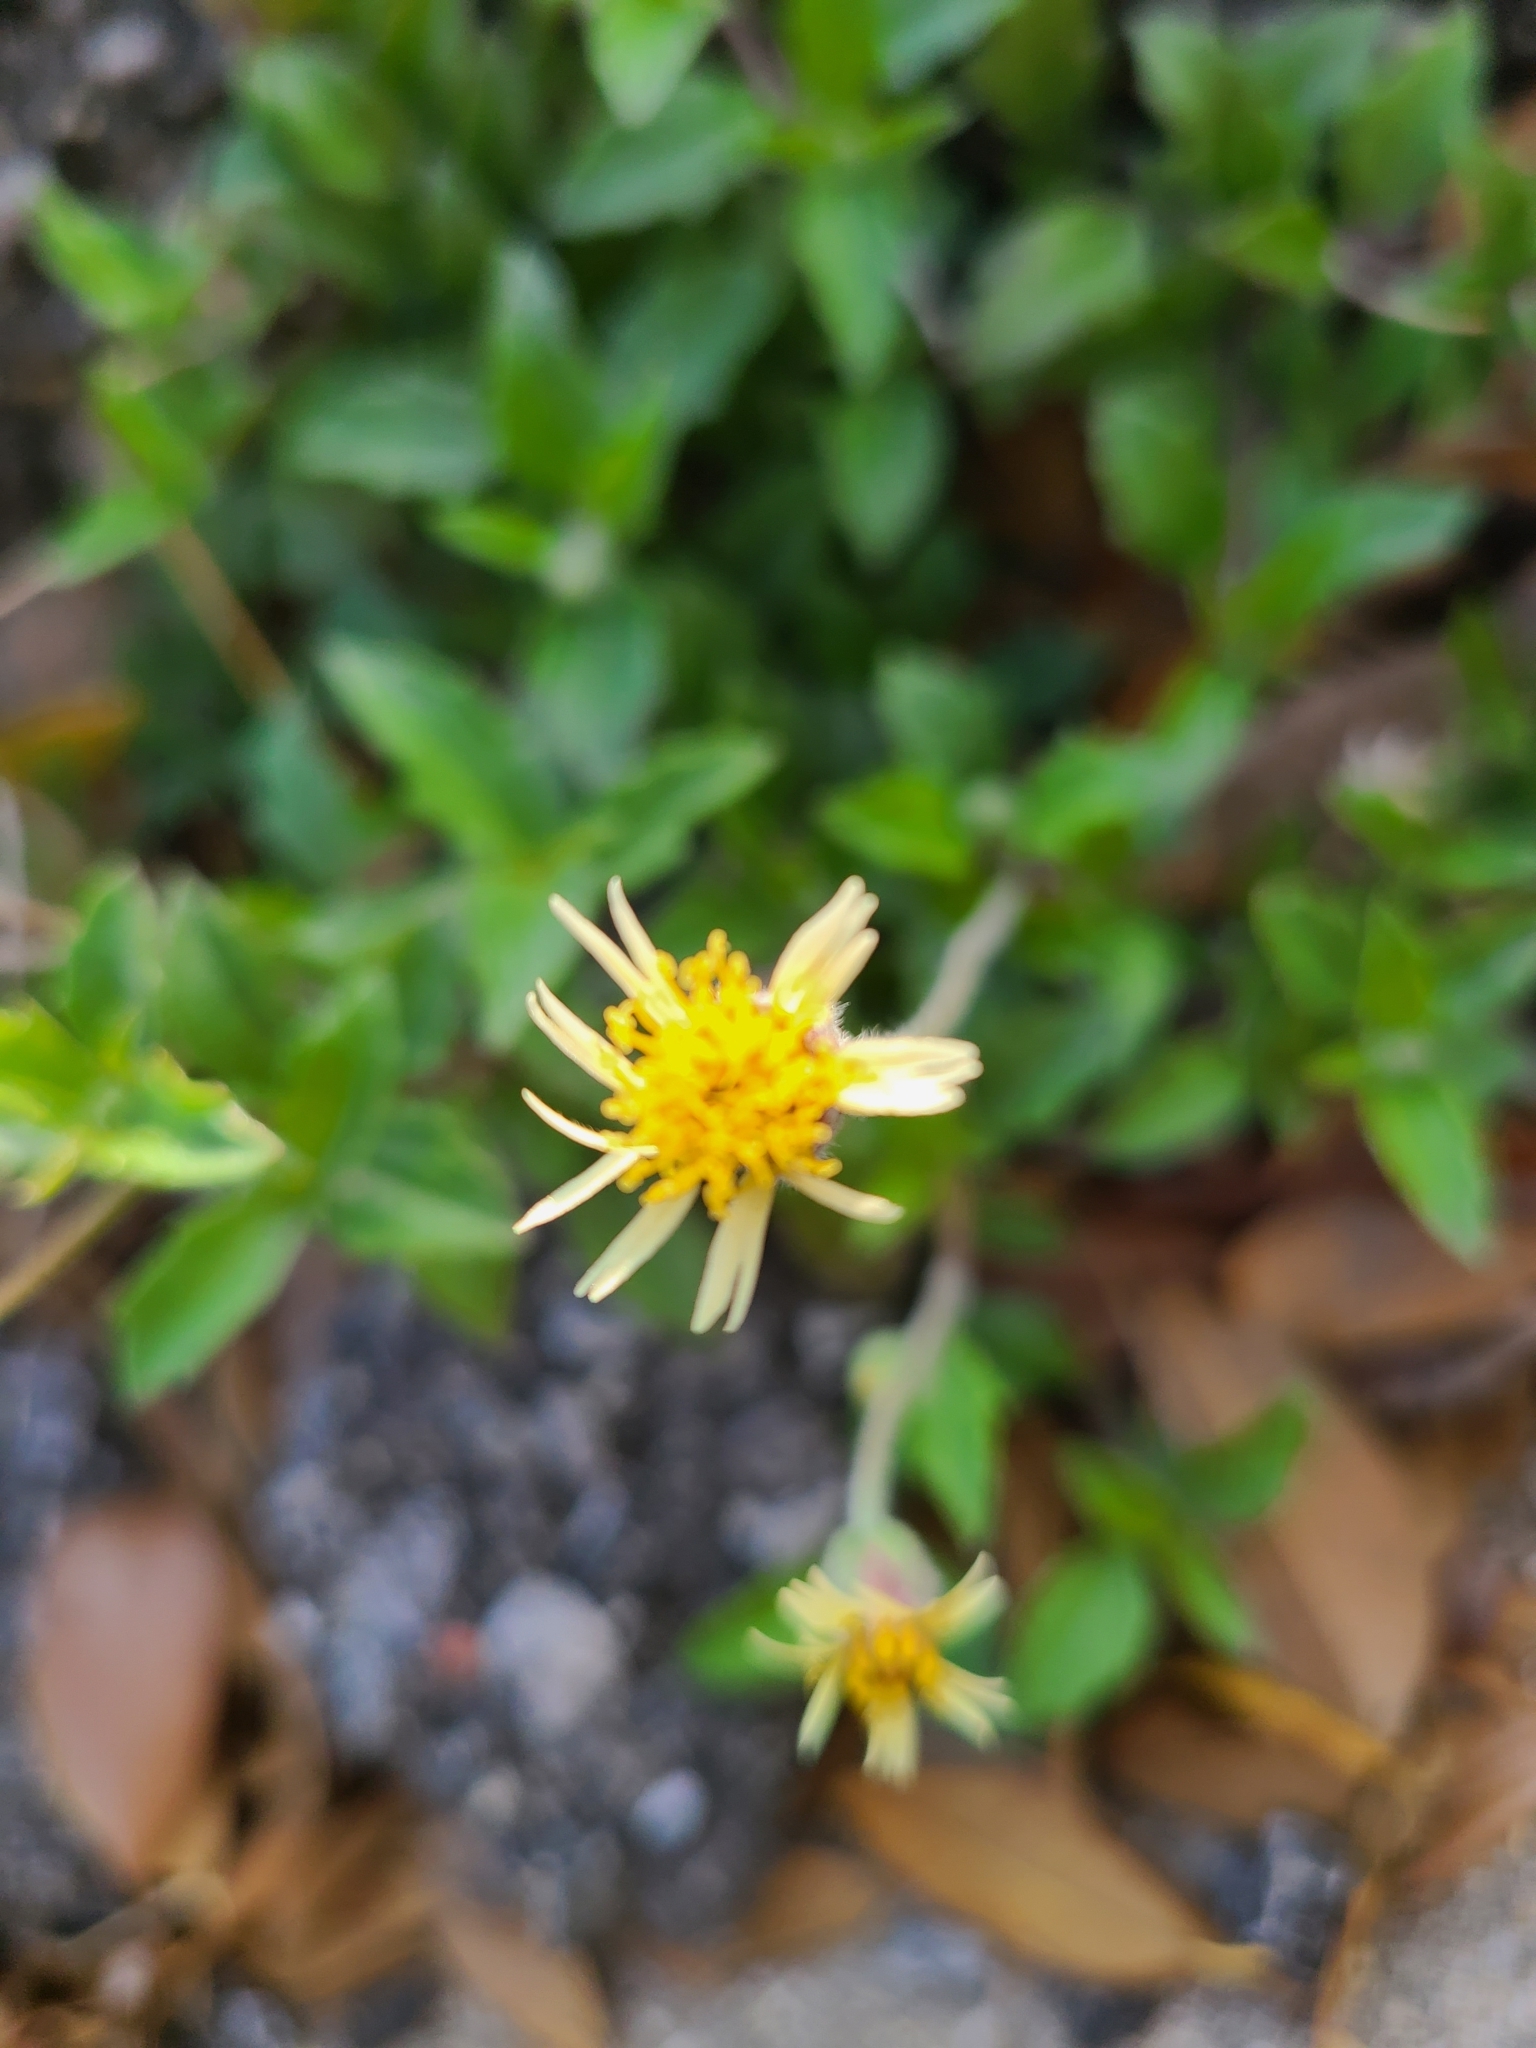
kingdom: Plantae
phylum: Tracheophyta
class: Magnoliopsida
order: Asterales
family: Asteraceae
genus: Tridax
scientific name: Tridax procumbens
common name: Coatbuttons
